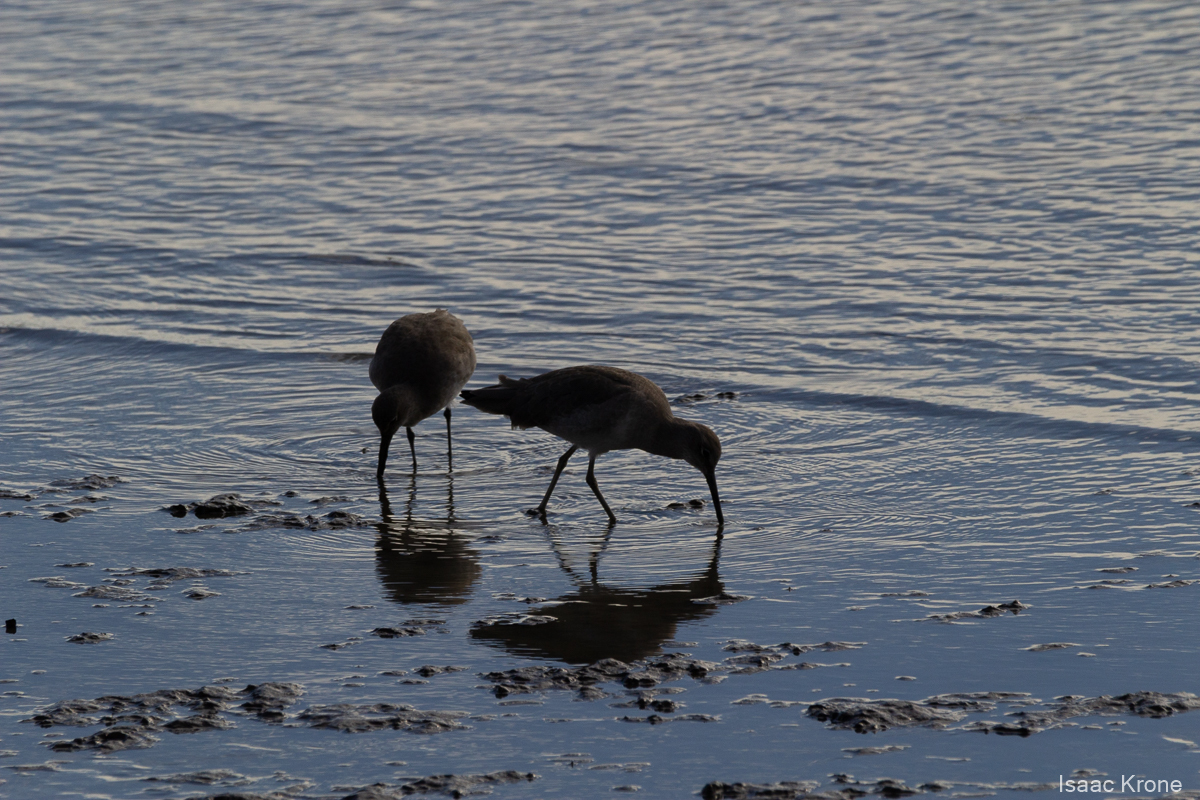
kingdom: Animalia
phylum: Chordata
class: Aves
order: Charadriiformes
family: Scolopacidae
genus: Tringa
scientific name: Tringa semipalmata
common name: Willet
